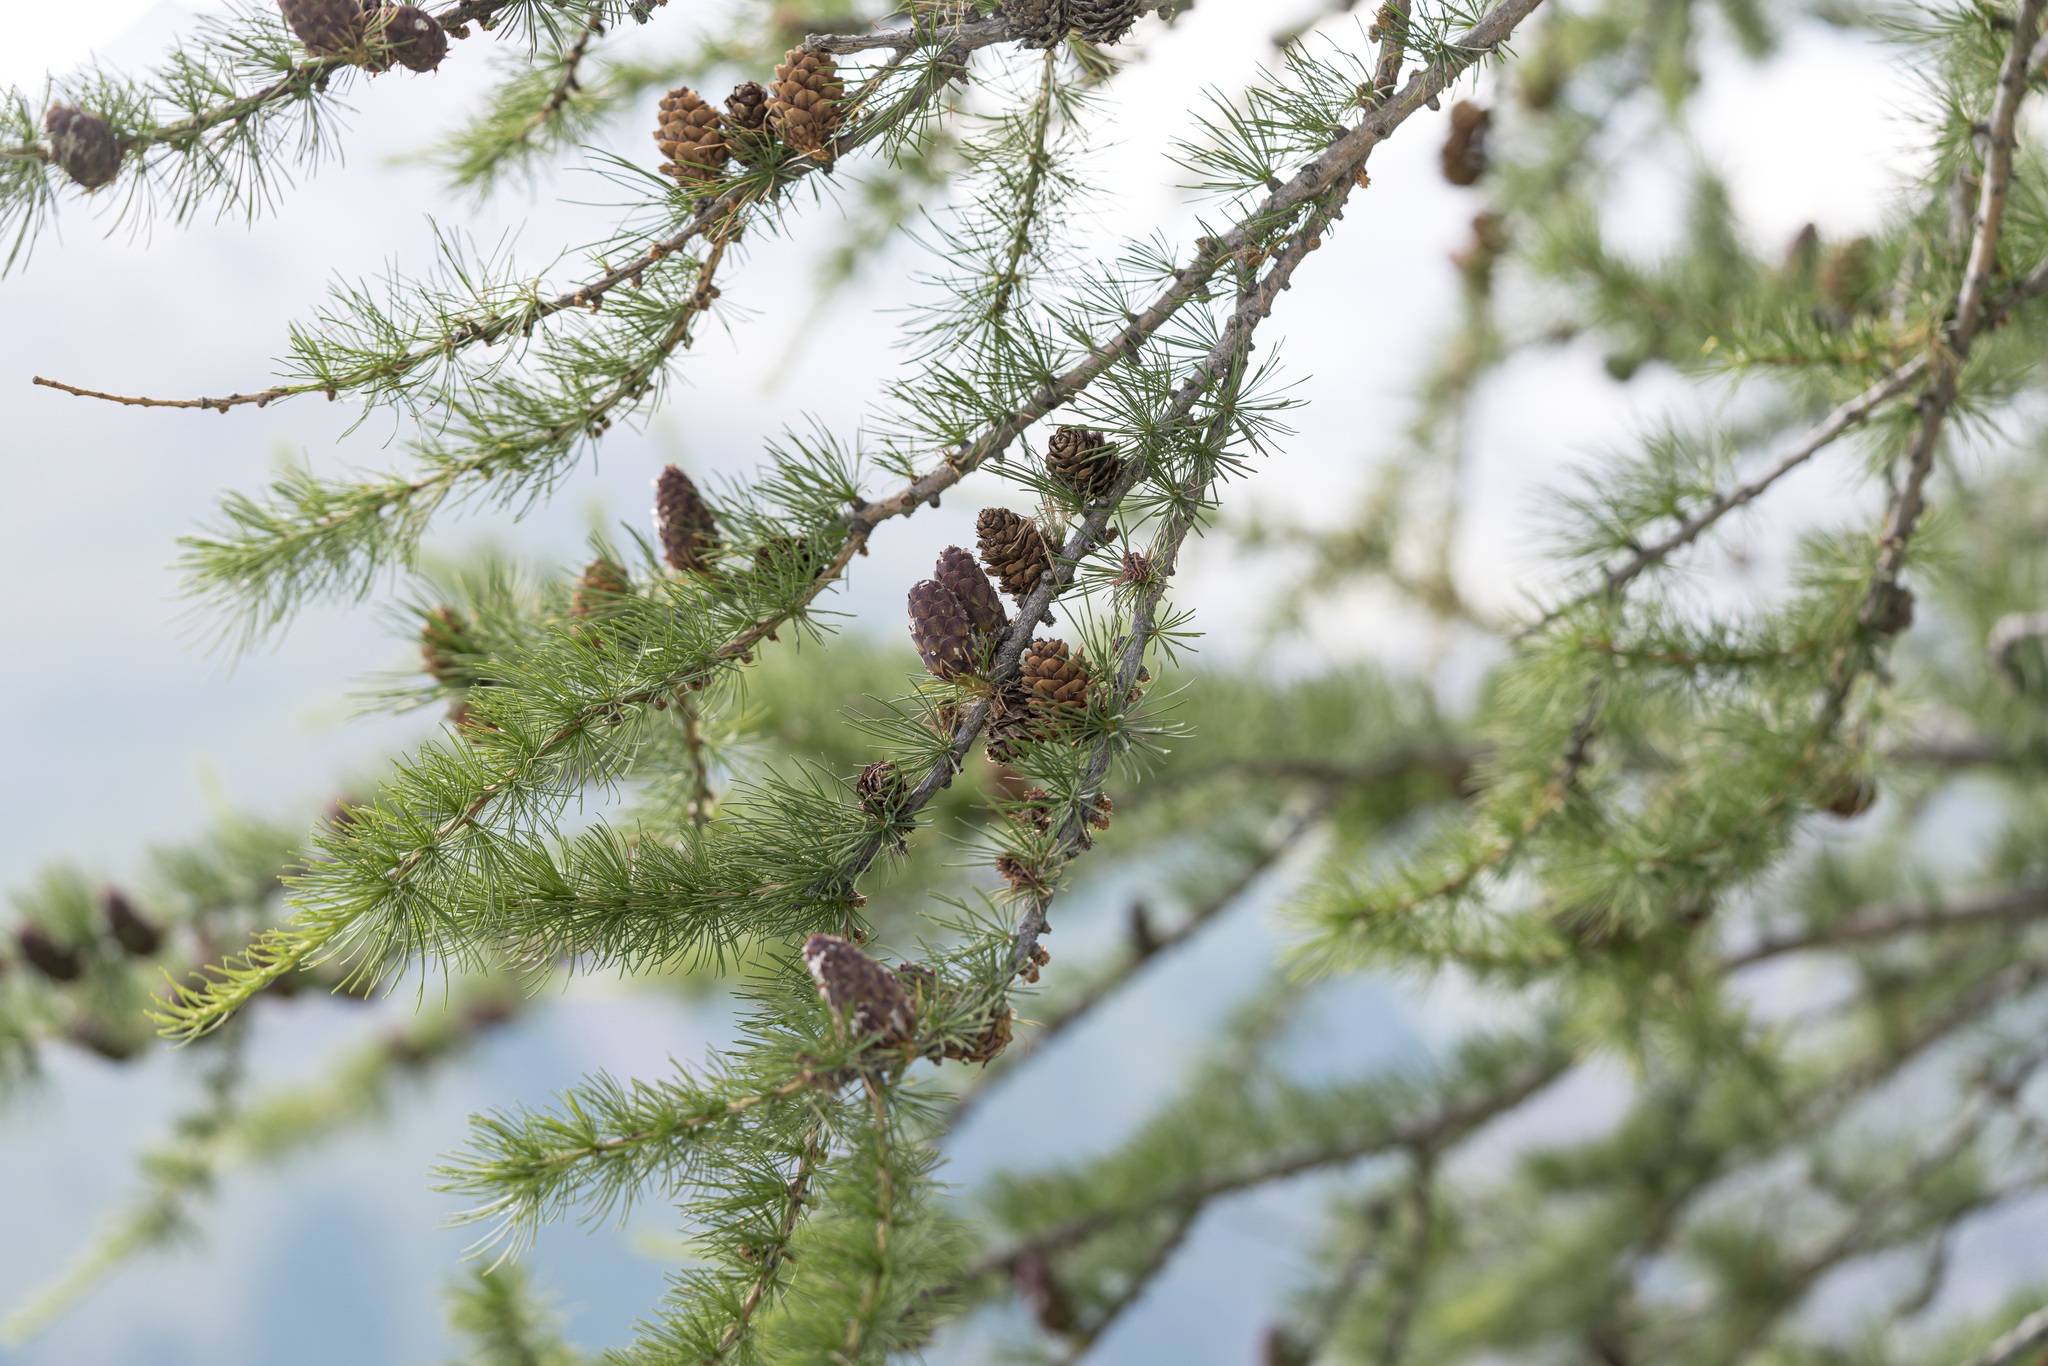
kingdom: Plantae
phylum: Tracheophyta
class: Pinopsida
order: Pinales
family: Pinaceae
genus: Larix
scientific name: Larix decidua
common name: European larch
